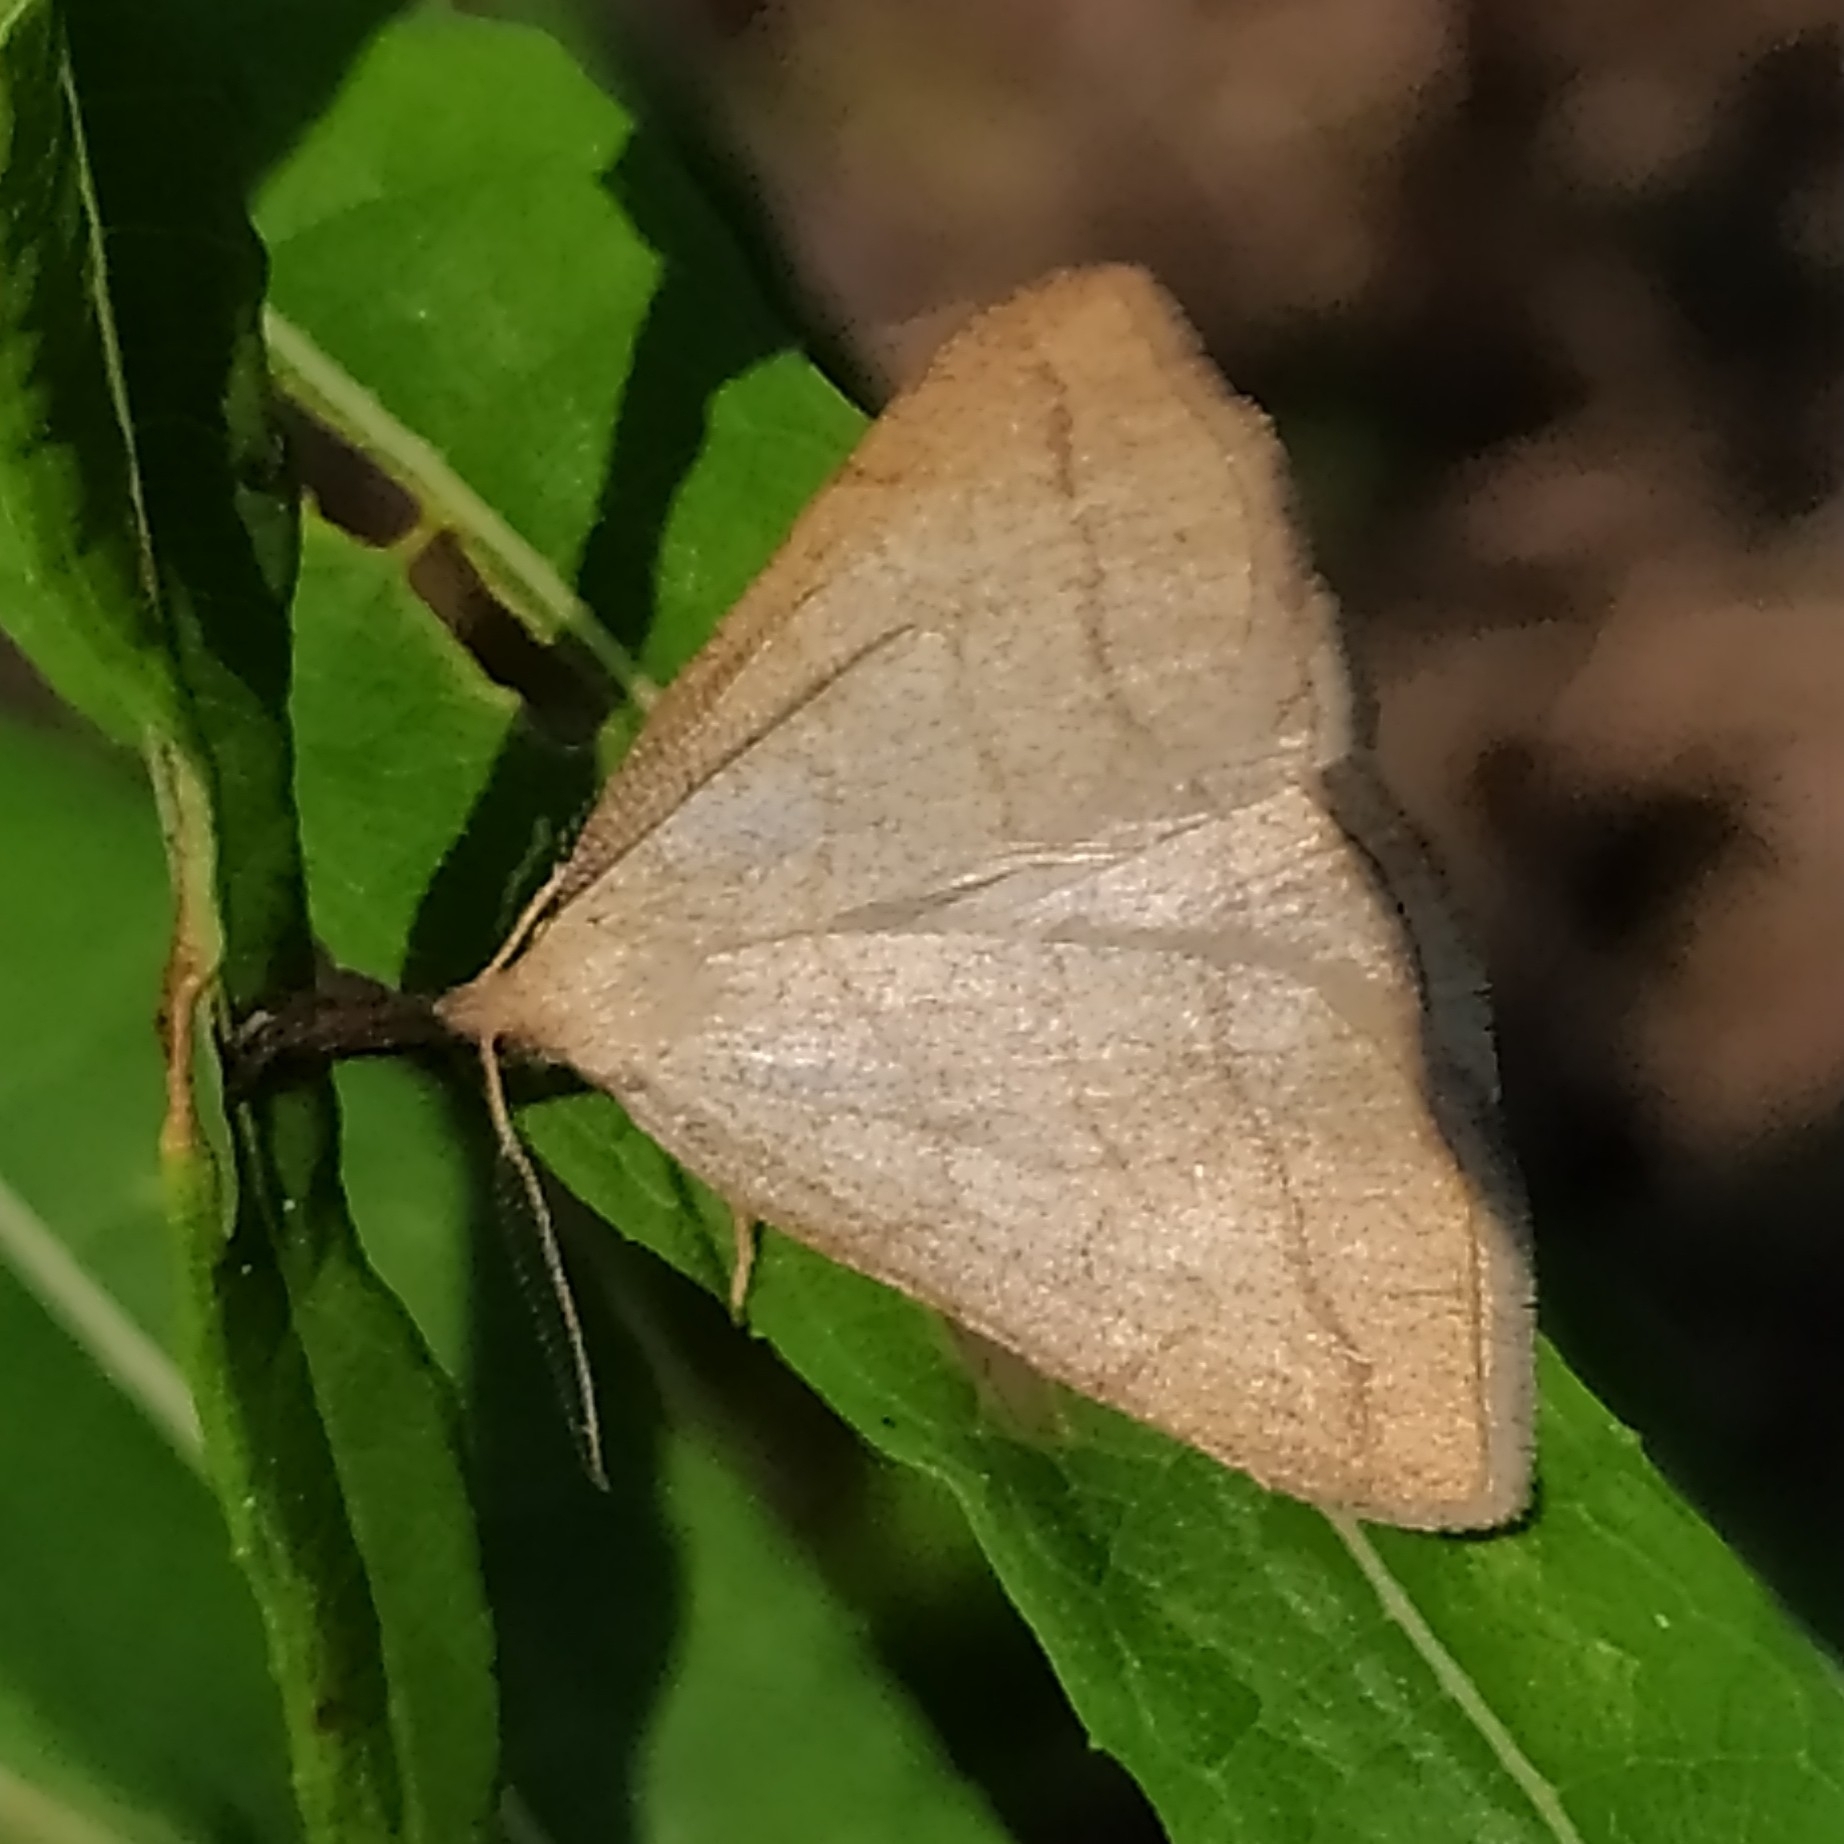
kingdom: Animalia
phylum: Arthropoda
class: Insecta
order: Lepidoptera
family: Erebidae
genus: Polypogon
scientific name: Polypogon tentacularia
